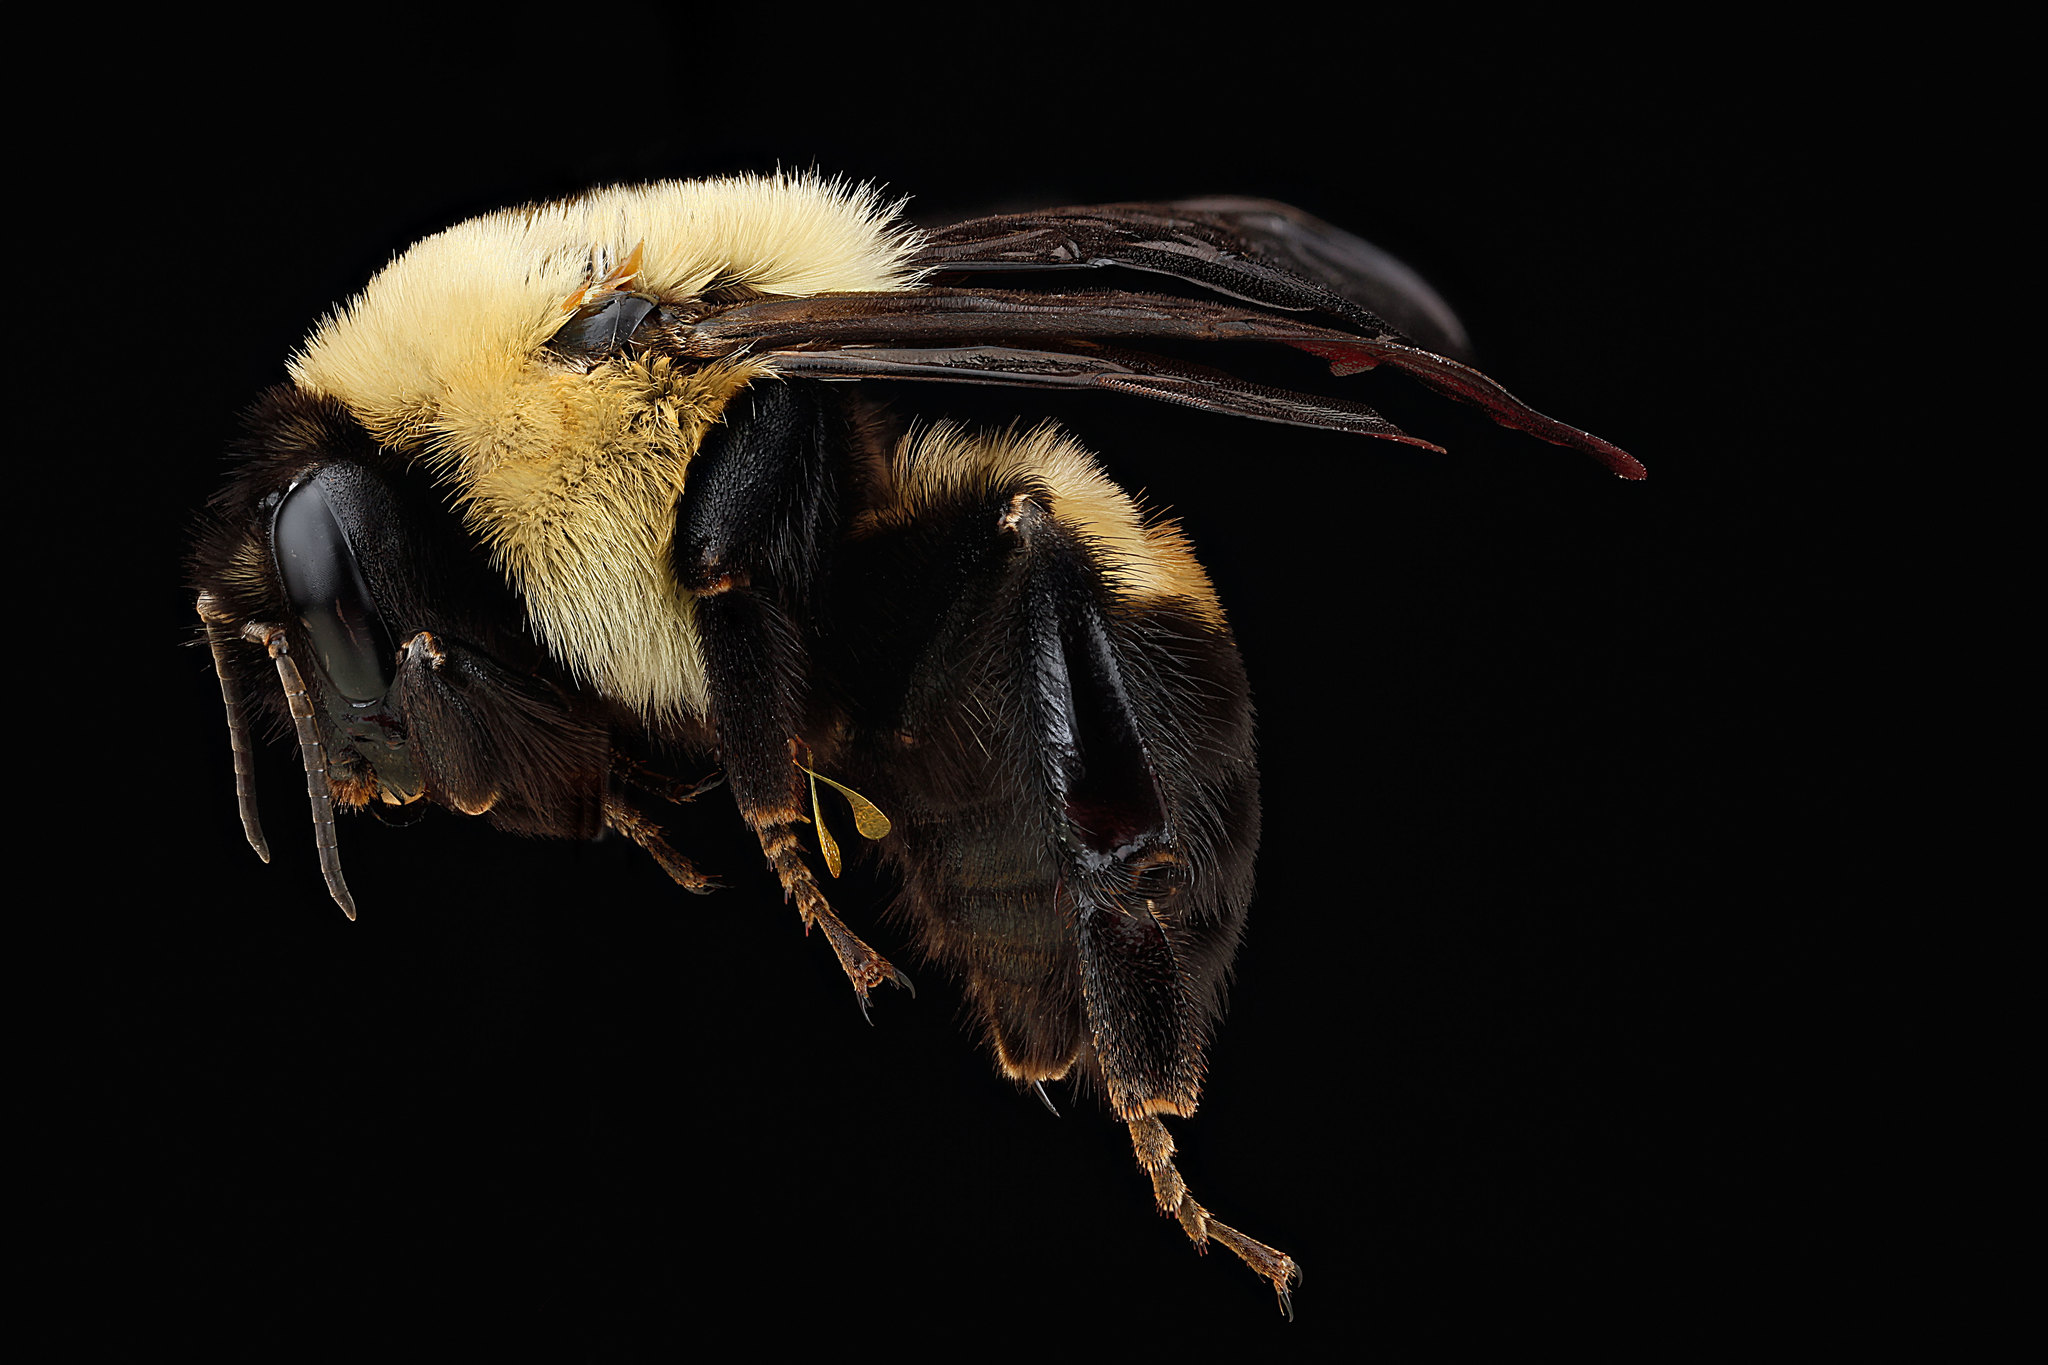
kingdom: Animalia
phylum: Arthropoda
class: Insecta
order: Hymenoptera
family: Apidae
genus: Bombus
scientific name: Bombus griseocollis
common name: Brown-belted bumble bee
